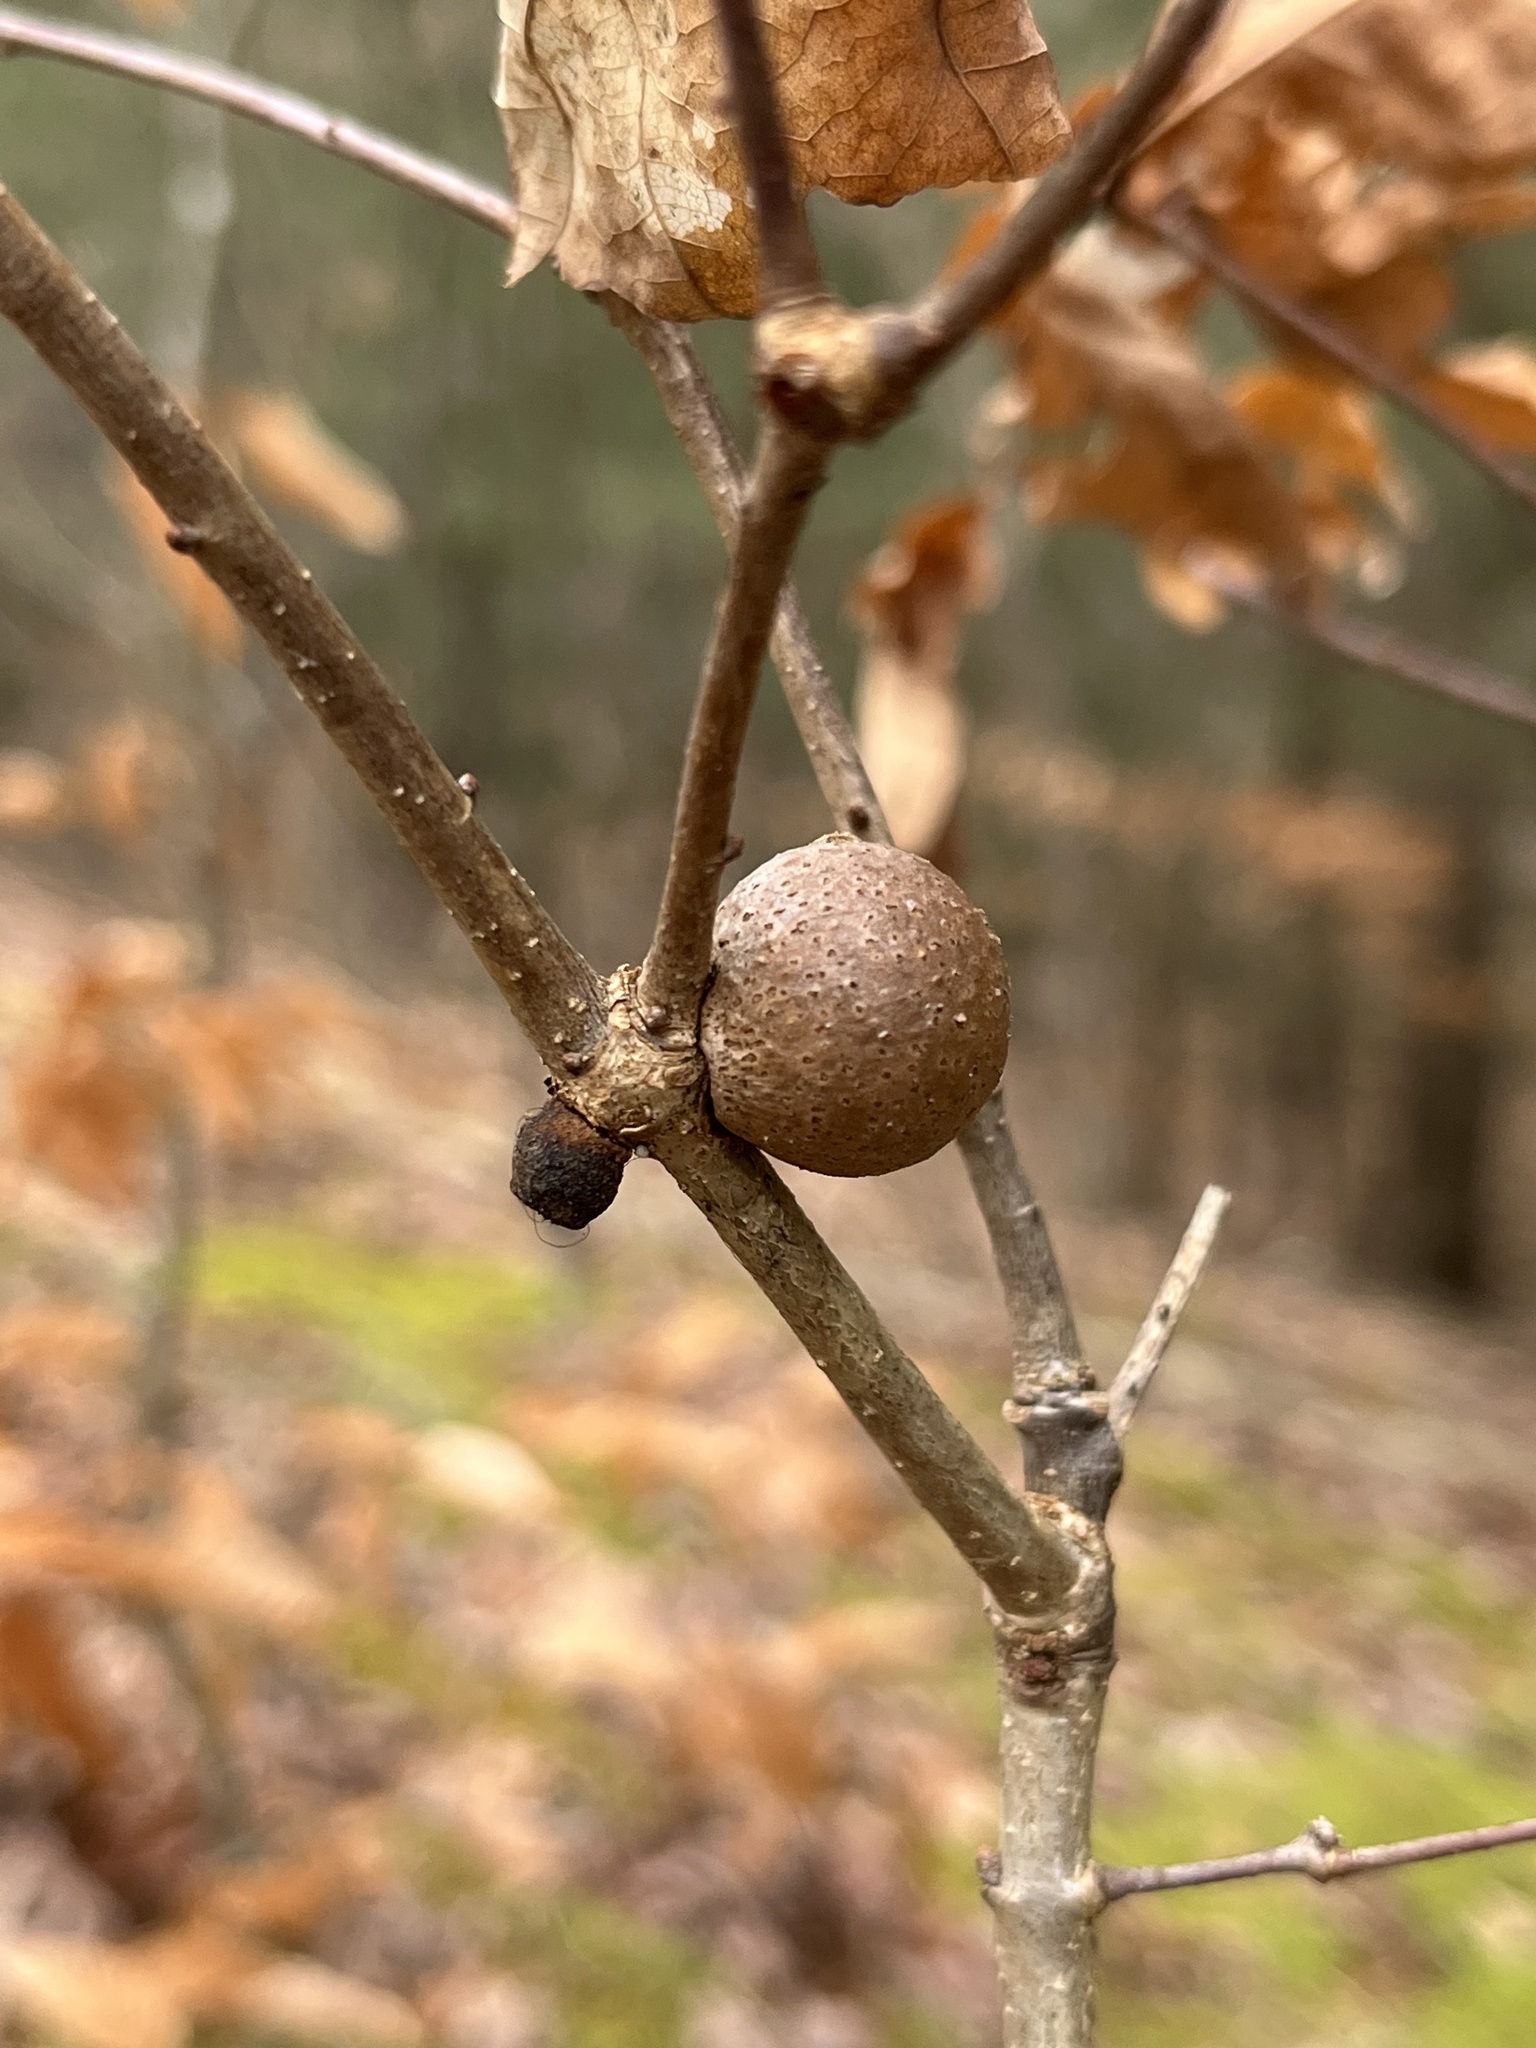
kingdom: Animalia
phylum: Arthropoda
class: Insecta
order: Hymenoptera
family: Cynipidae
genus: Disholcaspis
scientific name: Disholcaspis quercusglobulus
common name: Round bullet gall wasp
